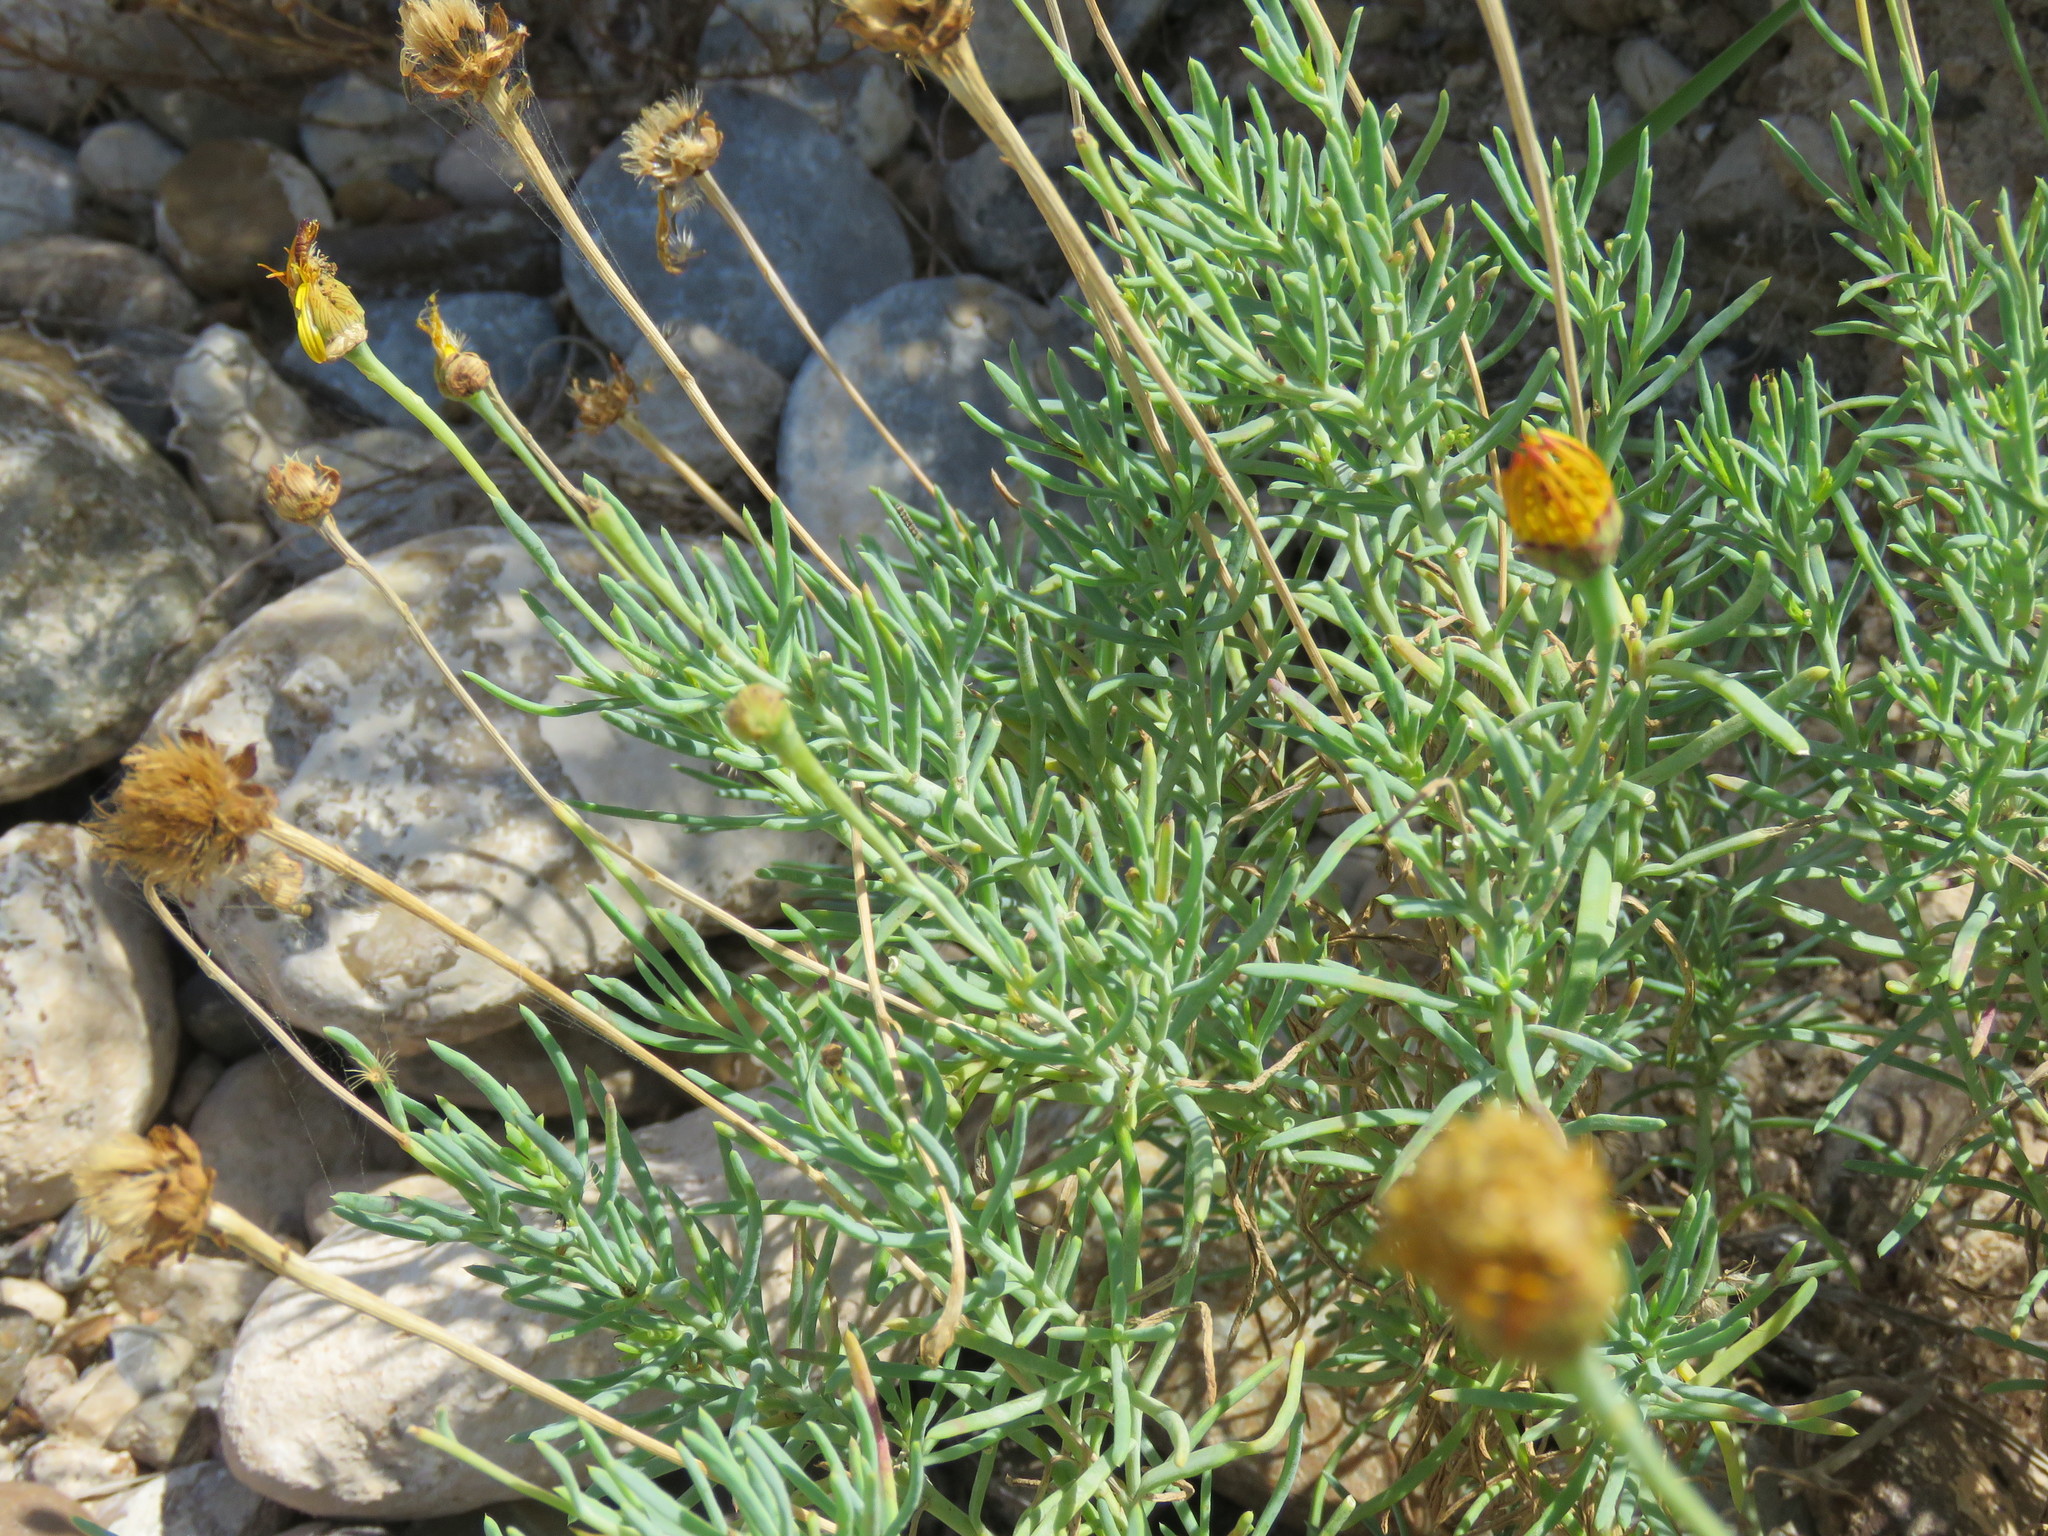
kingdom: Plantae
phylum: Tracheophyta
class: Magnoliopsida
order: Asterales
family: Asteraceae
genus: Clappia
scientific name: Clappia suaedifolia
